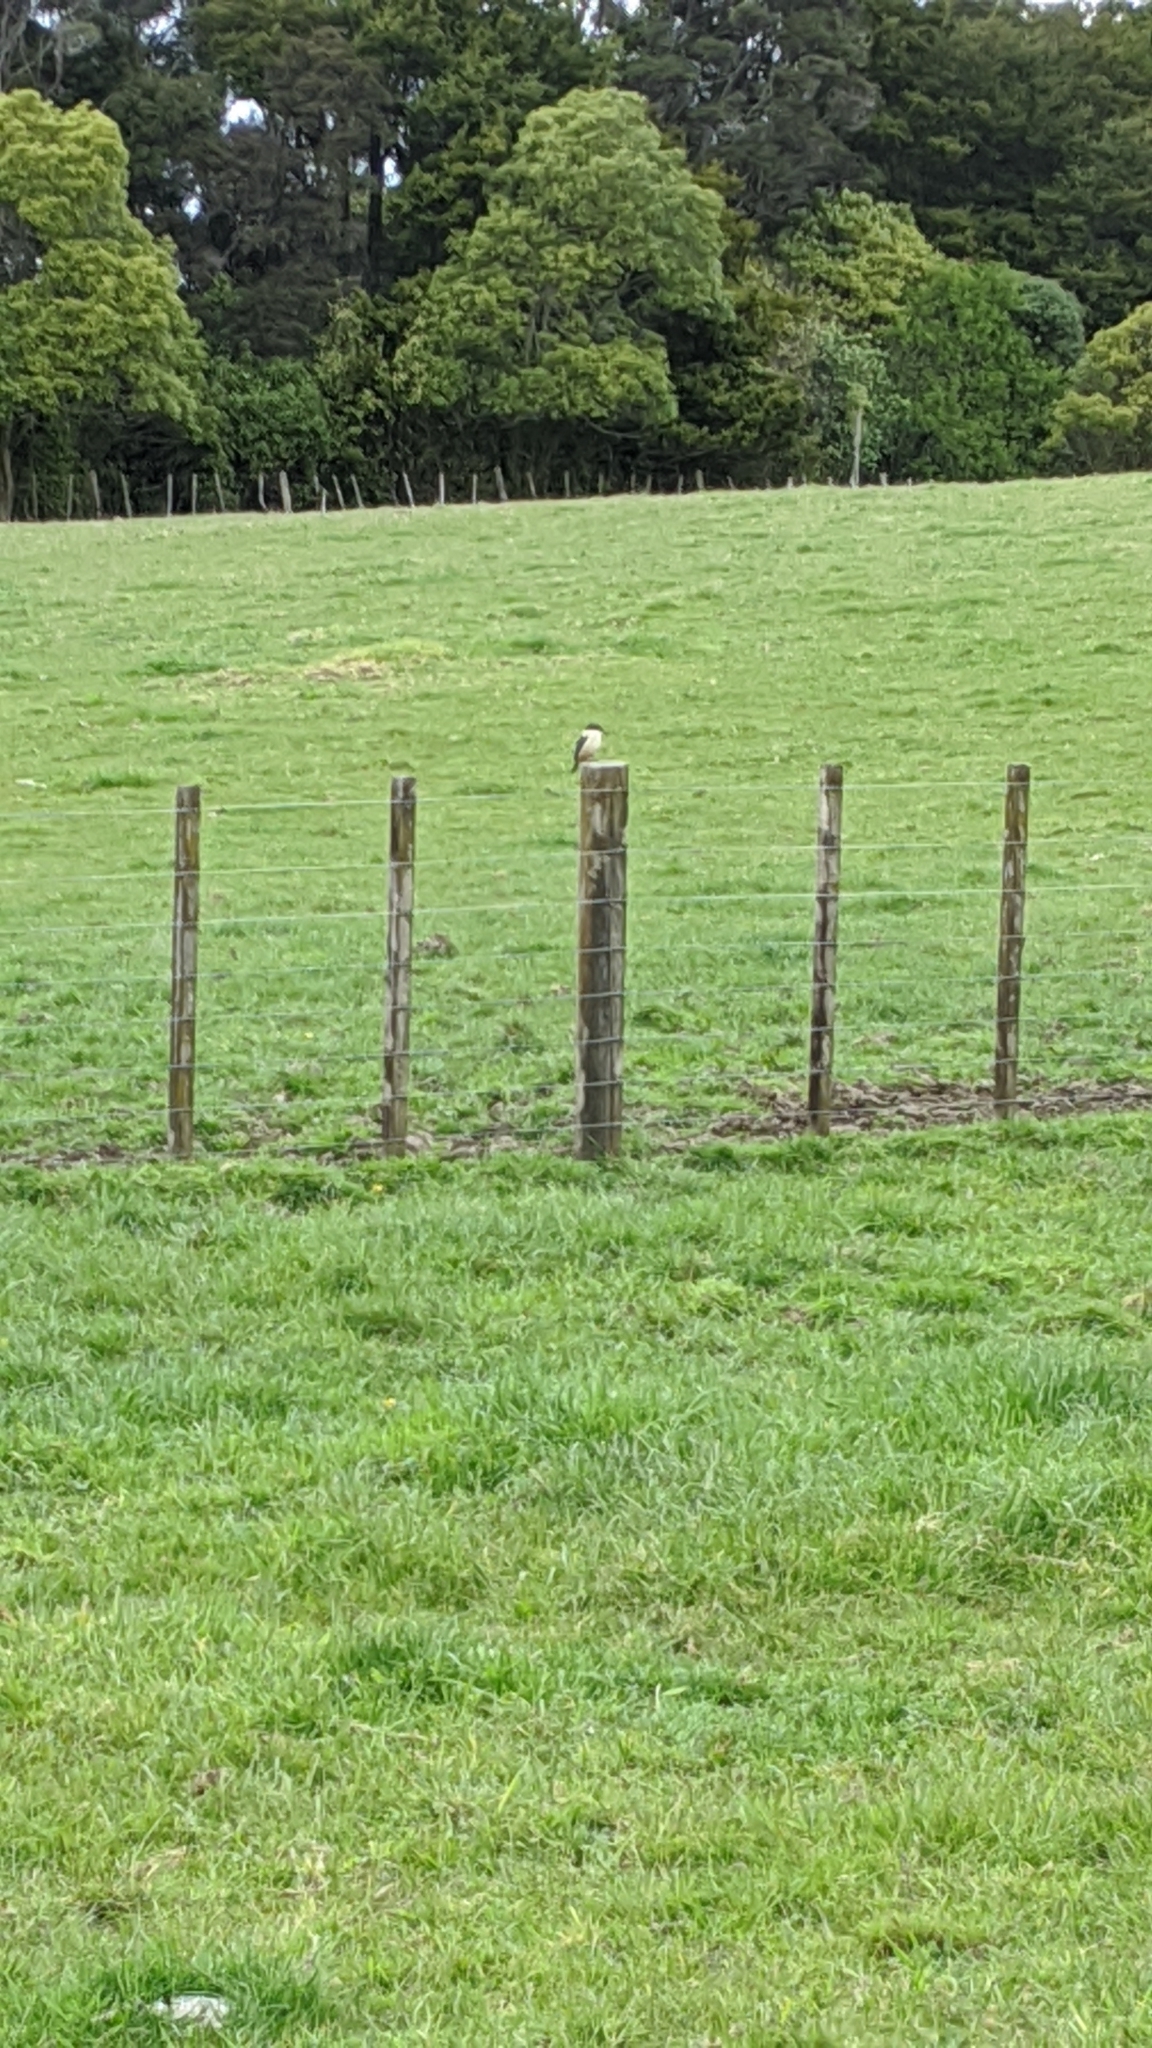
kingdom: Animalia
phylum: Chordata
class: Aves
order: Coraciiformes
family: Alcedinidae
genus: Todiramphus
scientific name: Todiramphus sanctus
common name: Sacred kingfisher
